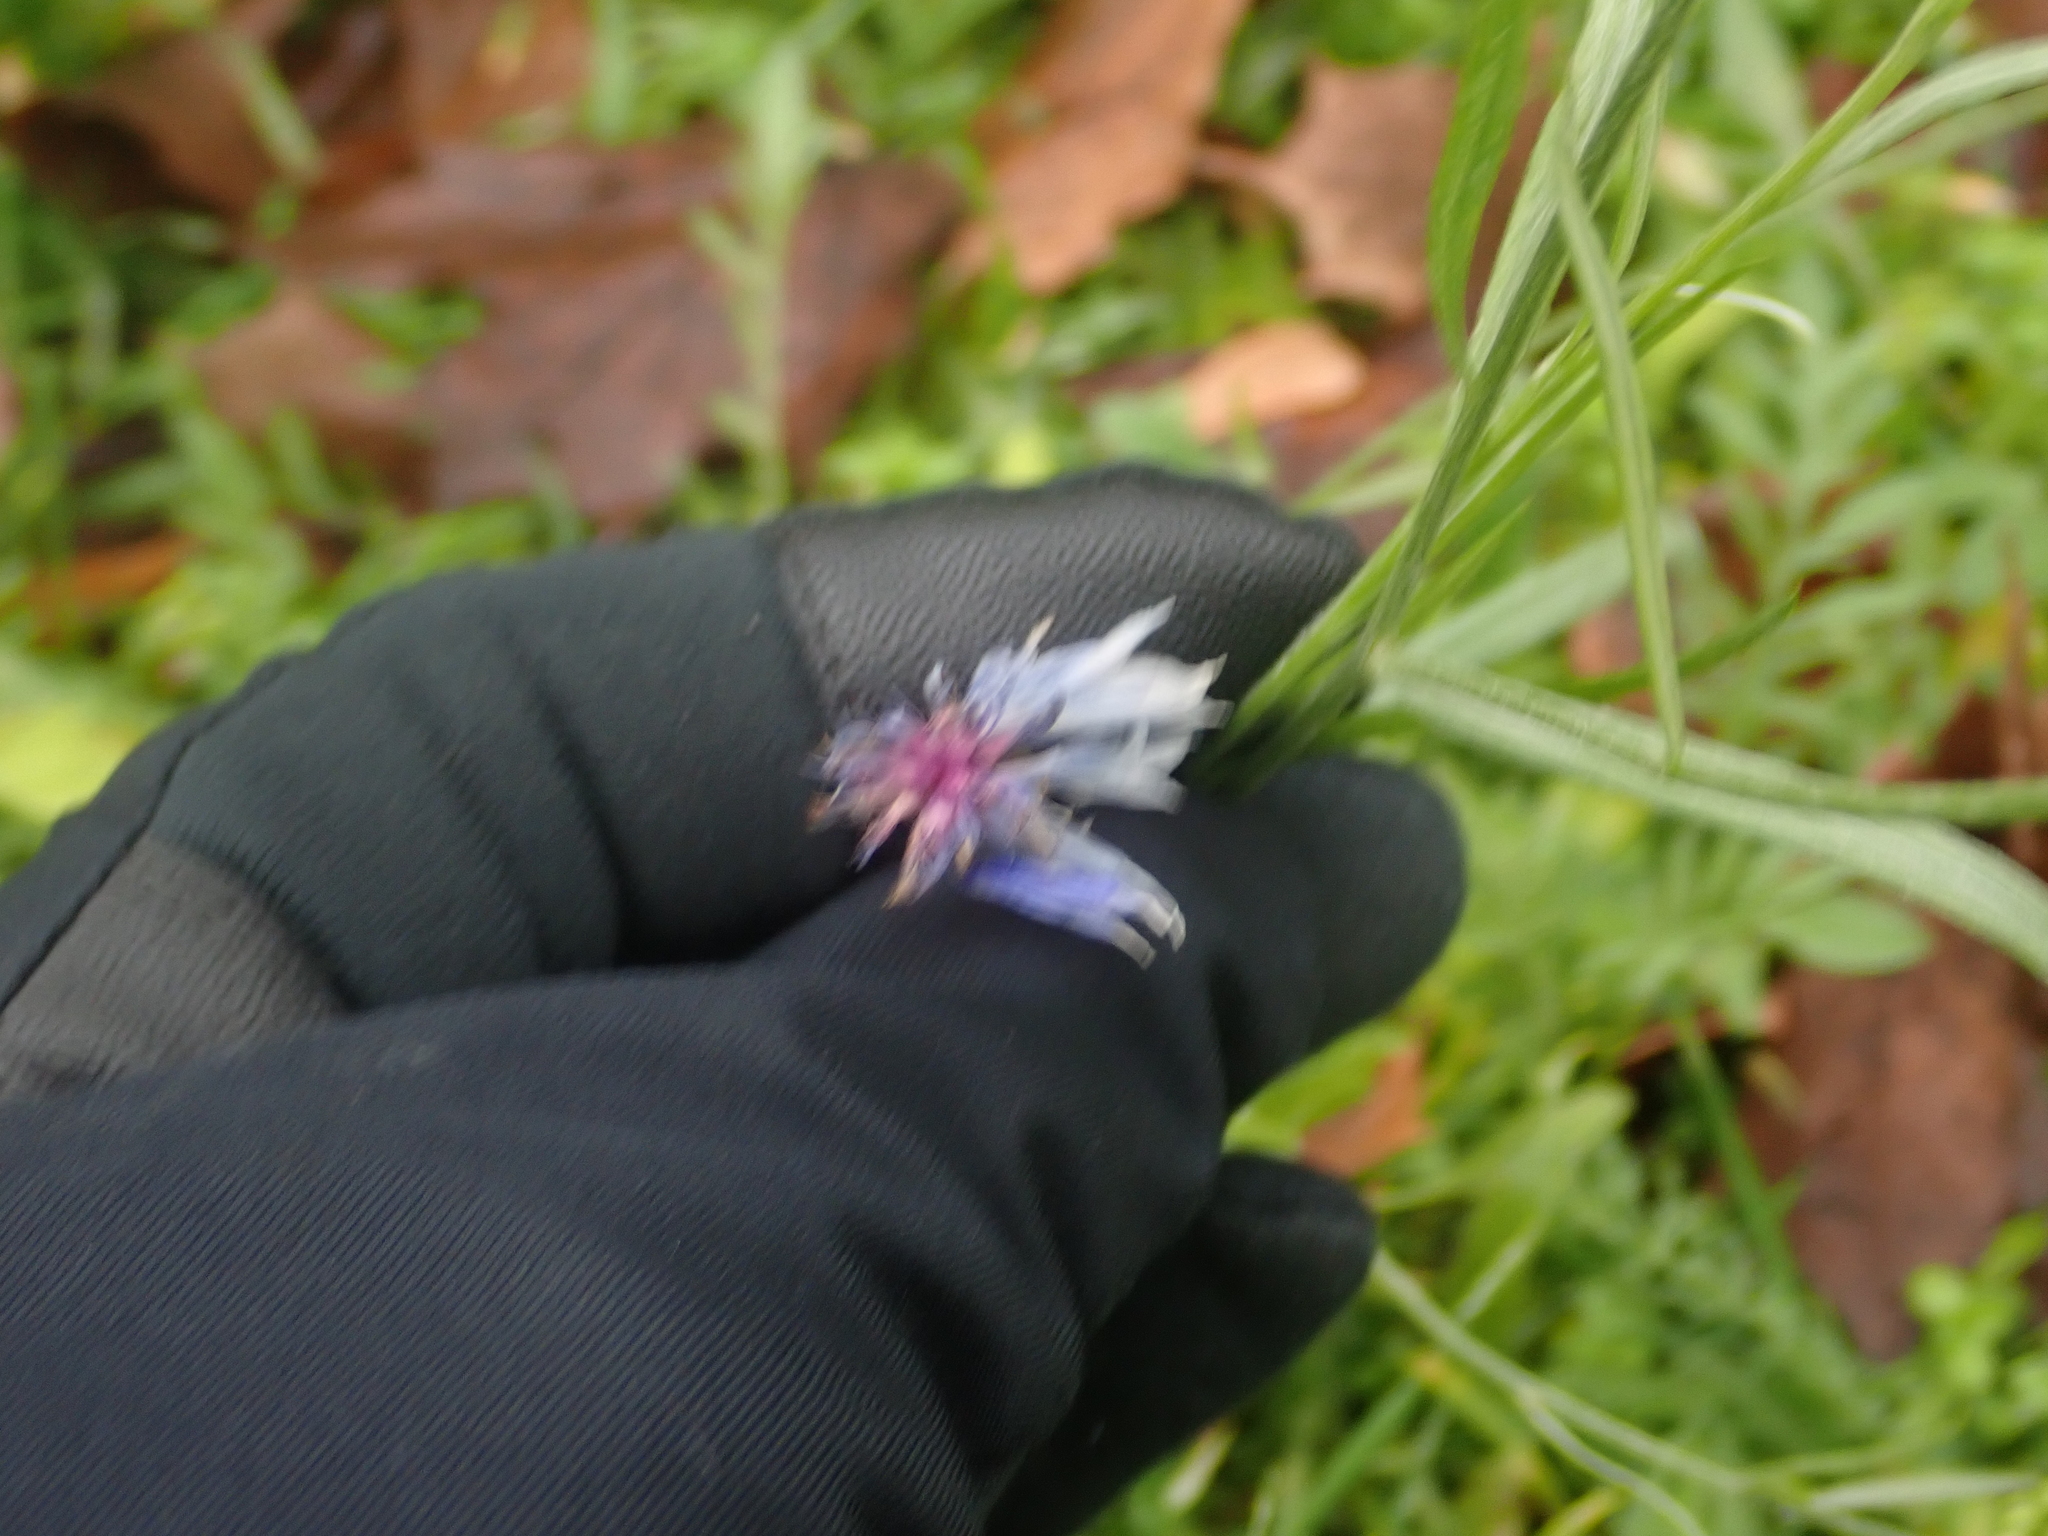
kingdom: Plantae
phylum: Tracheophyta
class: Magnoliopsida
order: Asterales
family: Asteraceae
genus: Centaurea
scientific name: Centaurea cyanus
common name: Cornflower
